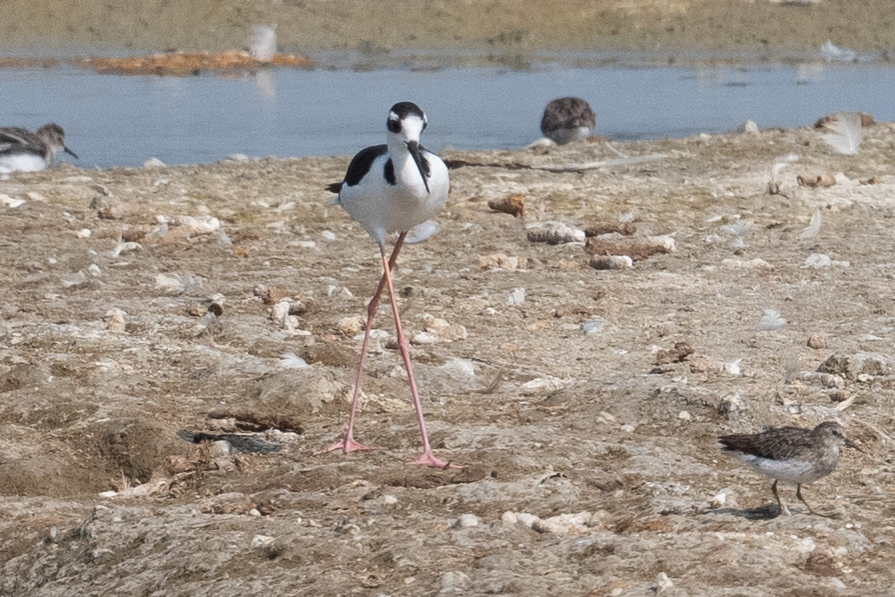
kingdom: Animalia
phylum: Chordata
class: Aves
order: Charadriiformes
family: Recurvirostridae
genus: Himantopus
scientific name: Himantopus mexicanus
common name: Black-necked stilt
